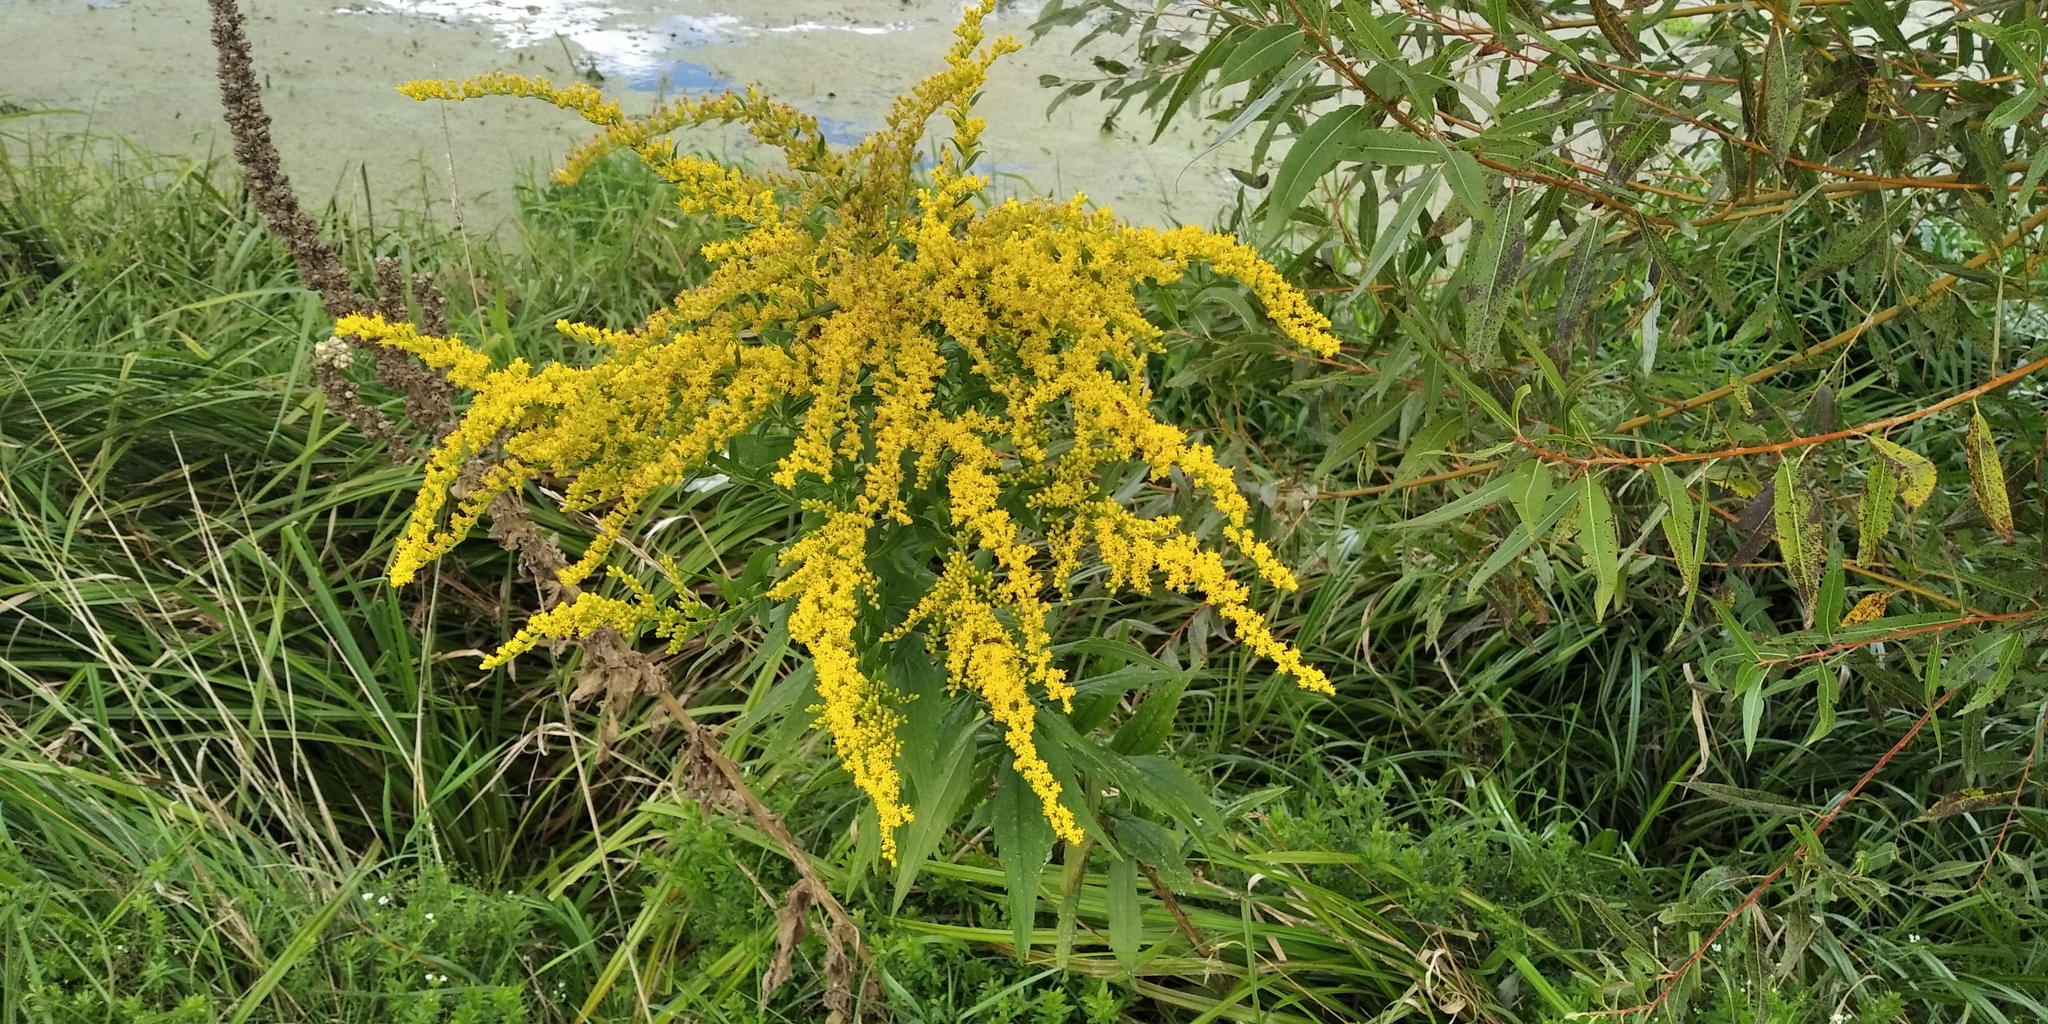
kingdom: Plantae
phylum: Tracheophyta
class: Magnoliopsida
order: Asterales
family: Asteraceae
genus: Solidago
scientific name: Solidago canadensis
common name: Canada goldenrod
